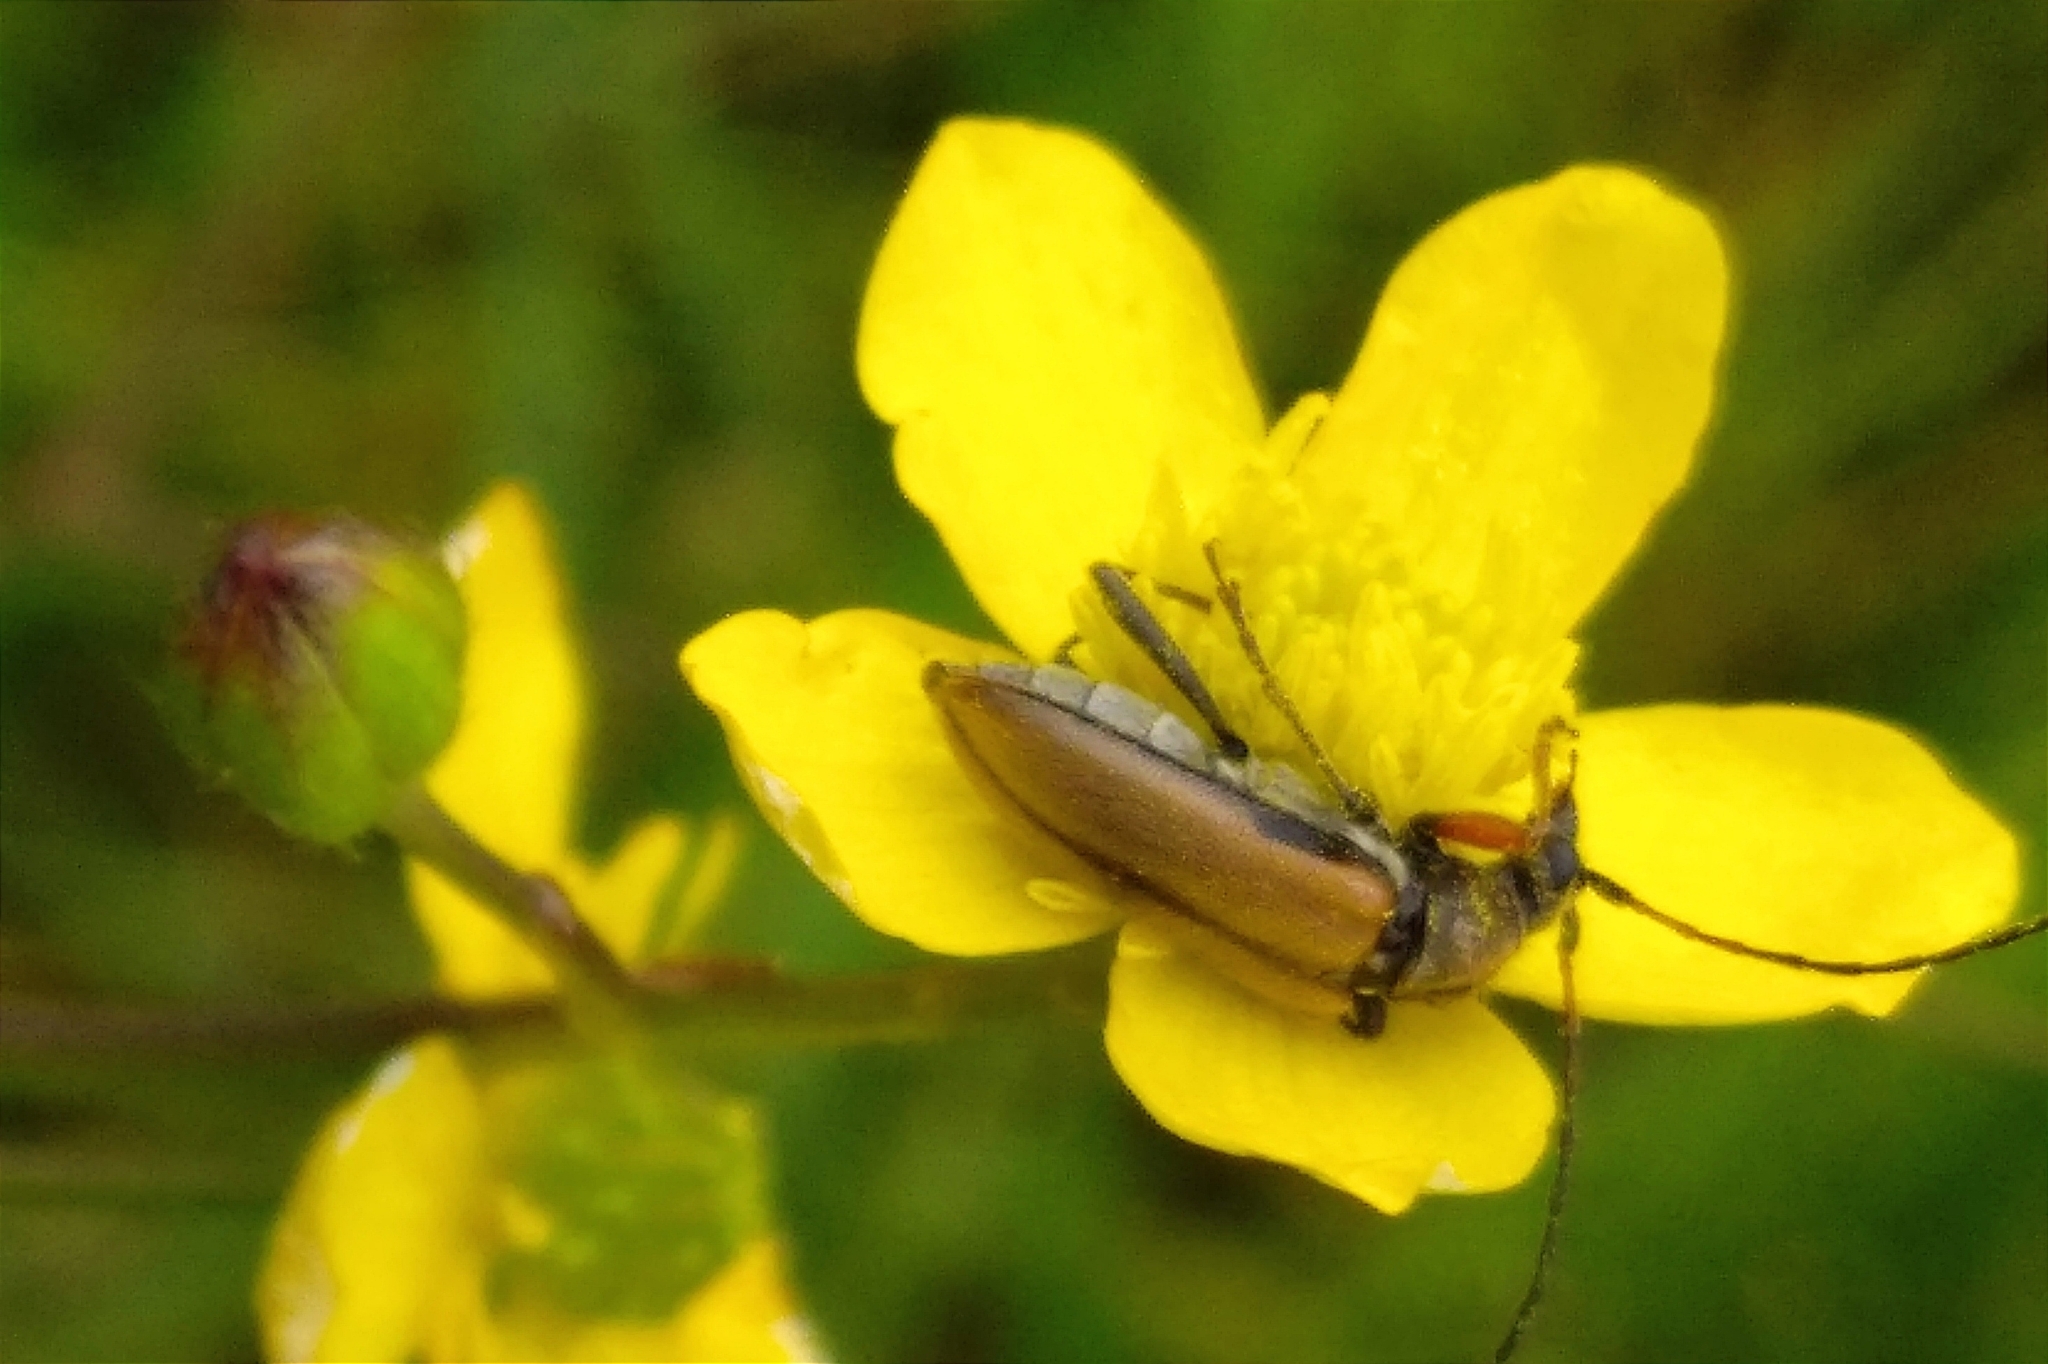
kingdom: Animalia
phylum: Arthropoda
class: Insecta
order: Coleoptera
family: Cerambycidae
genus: Cortodera
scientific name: Cortodera flavimana
